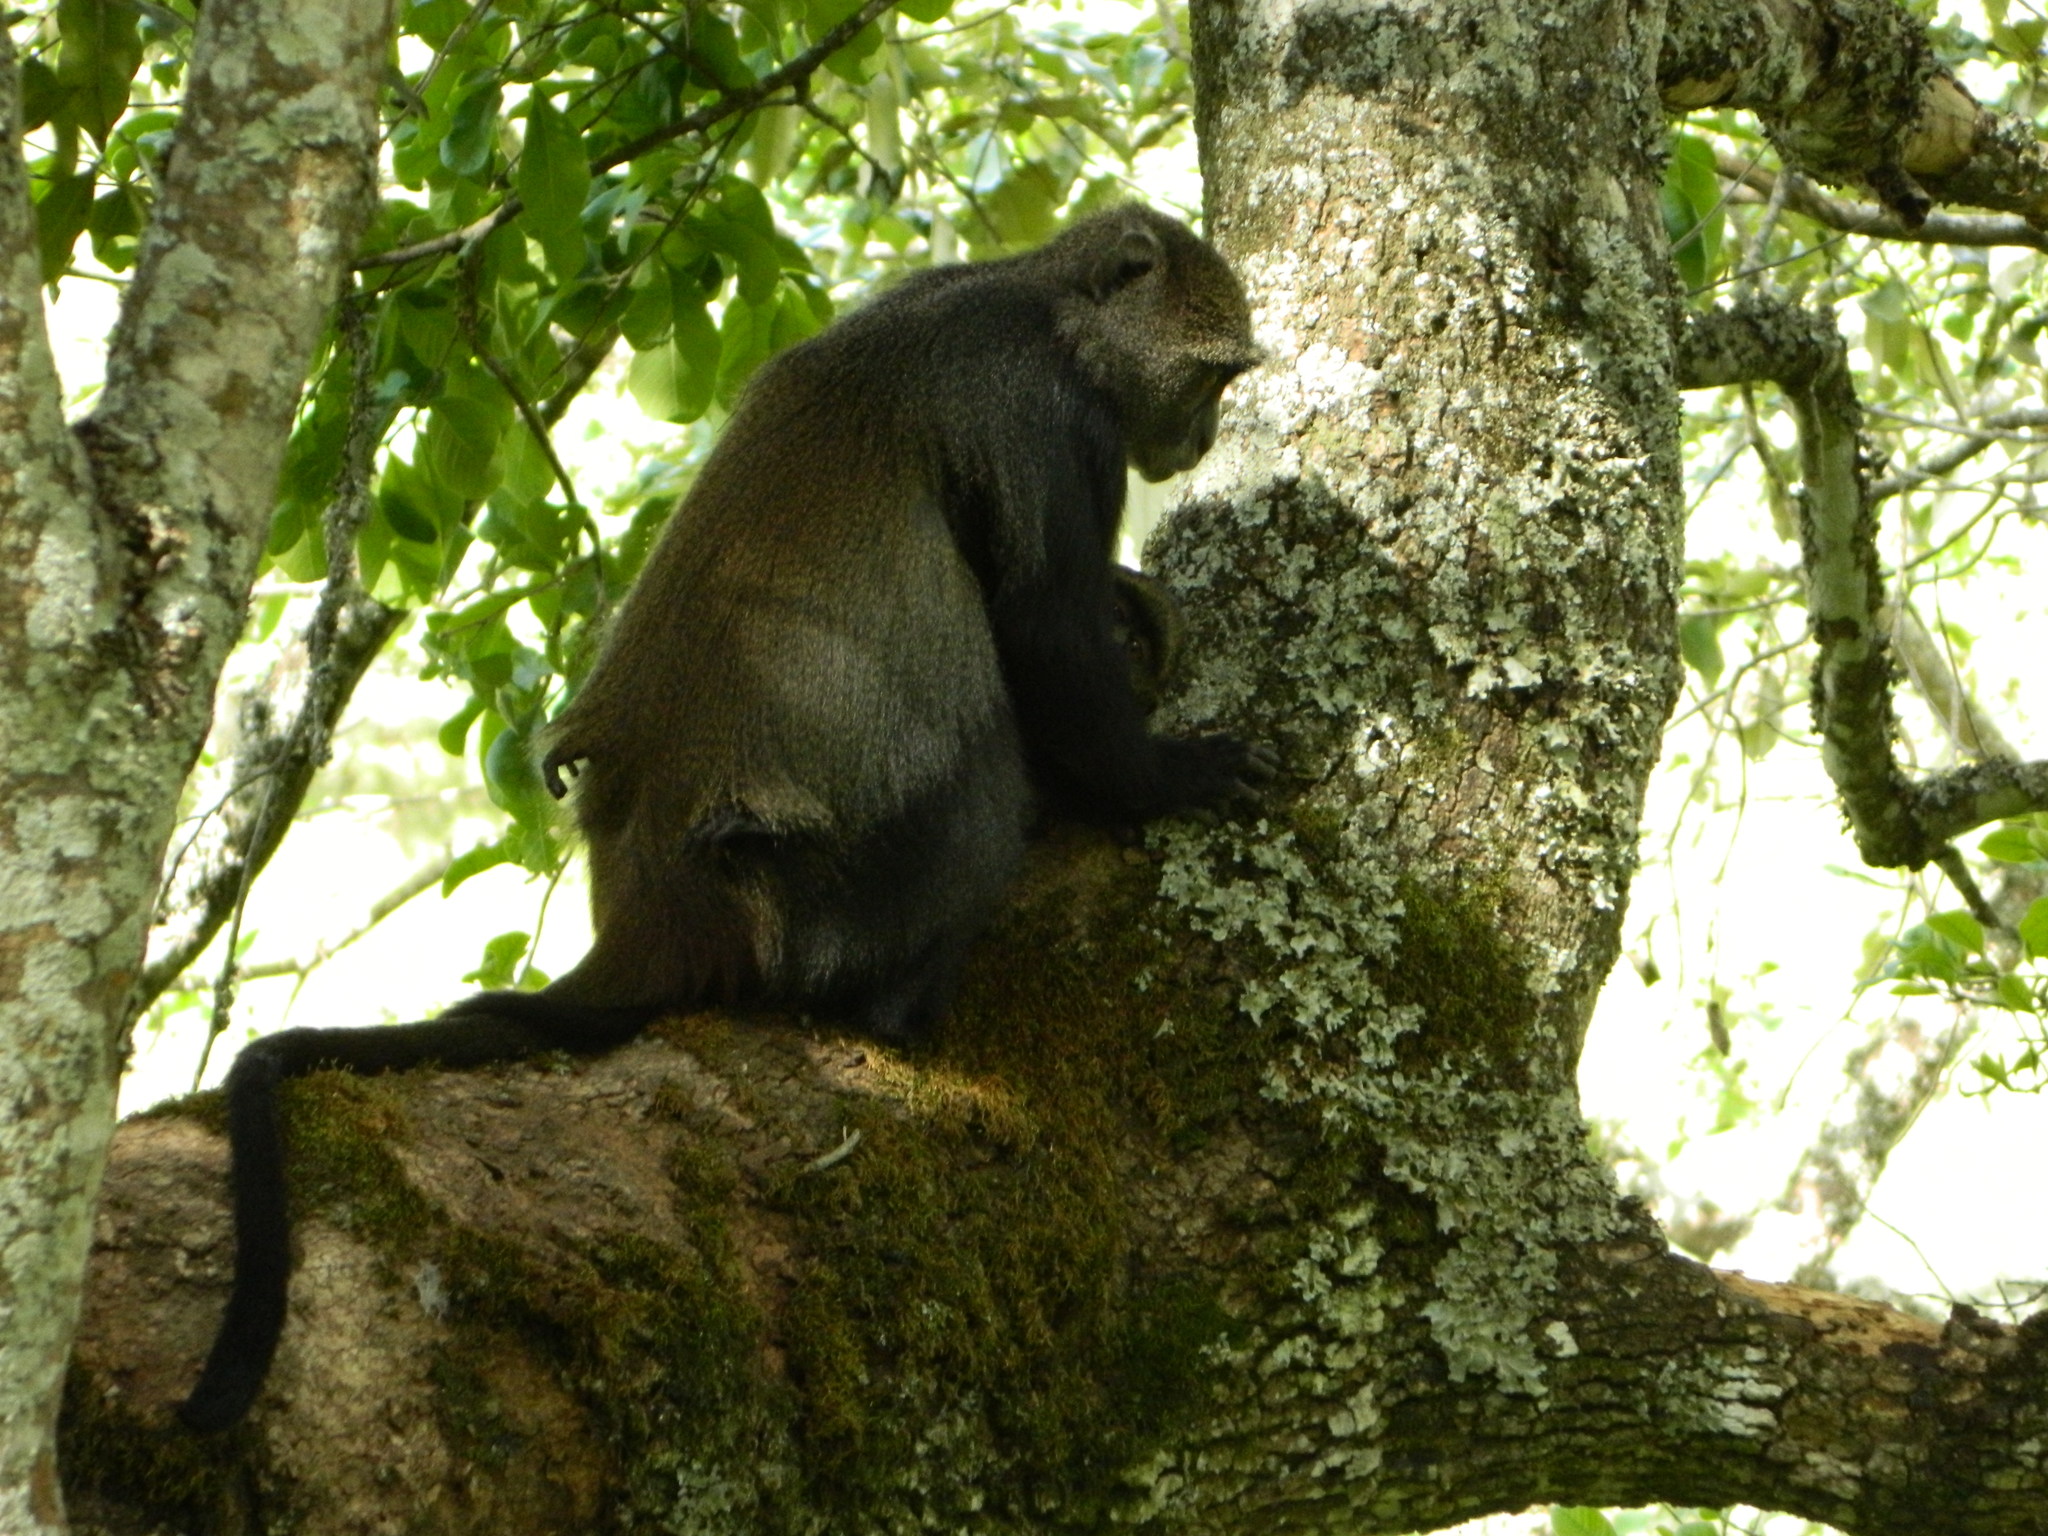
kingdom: Animalia
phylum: Chordata
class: Mammalia
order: Primates
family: Cercopithecidae
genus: Cercopithecus
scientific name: Cercopithecus mitis
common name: Blue monkey
